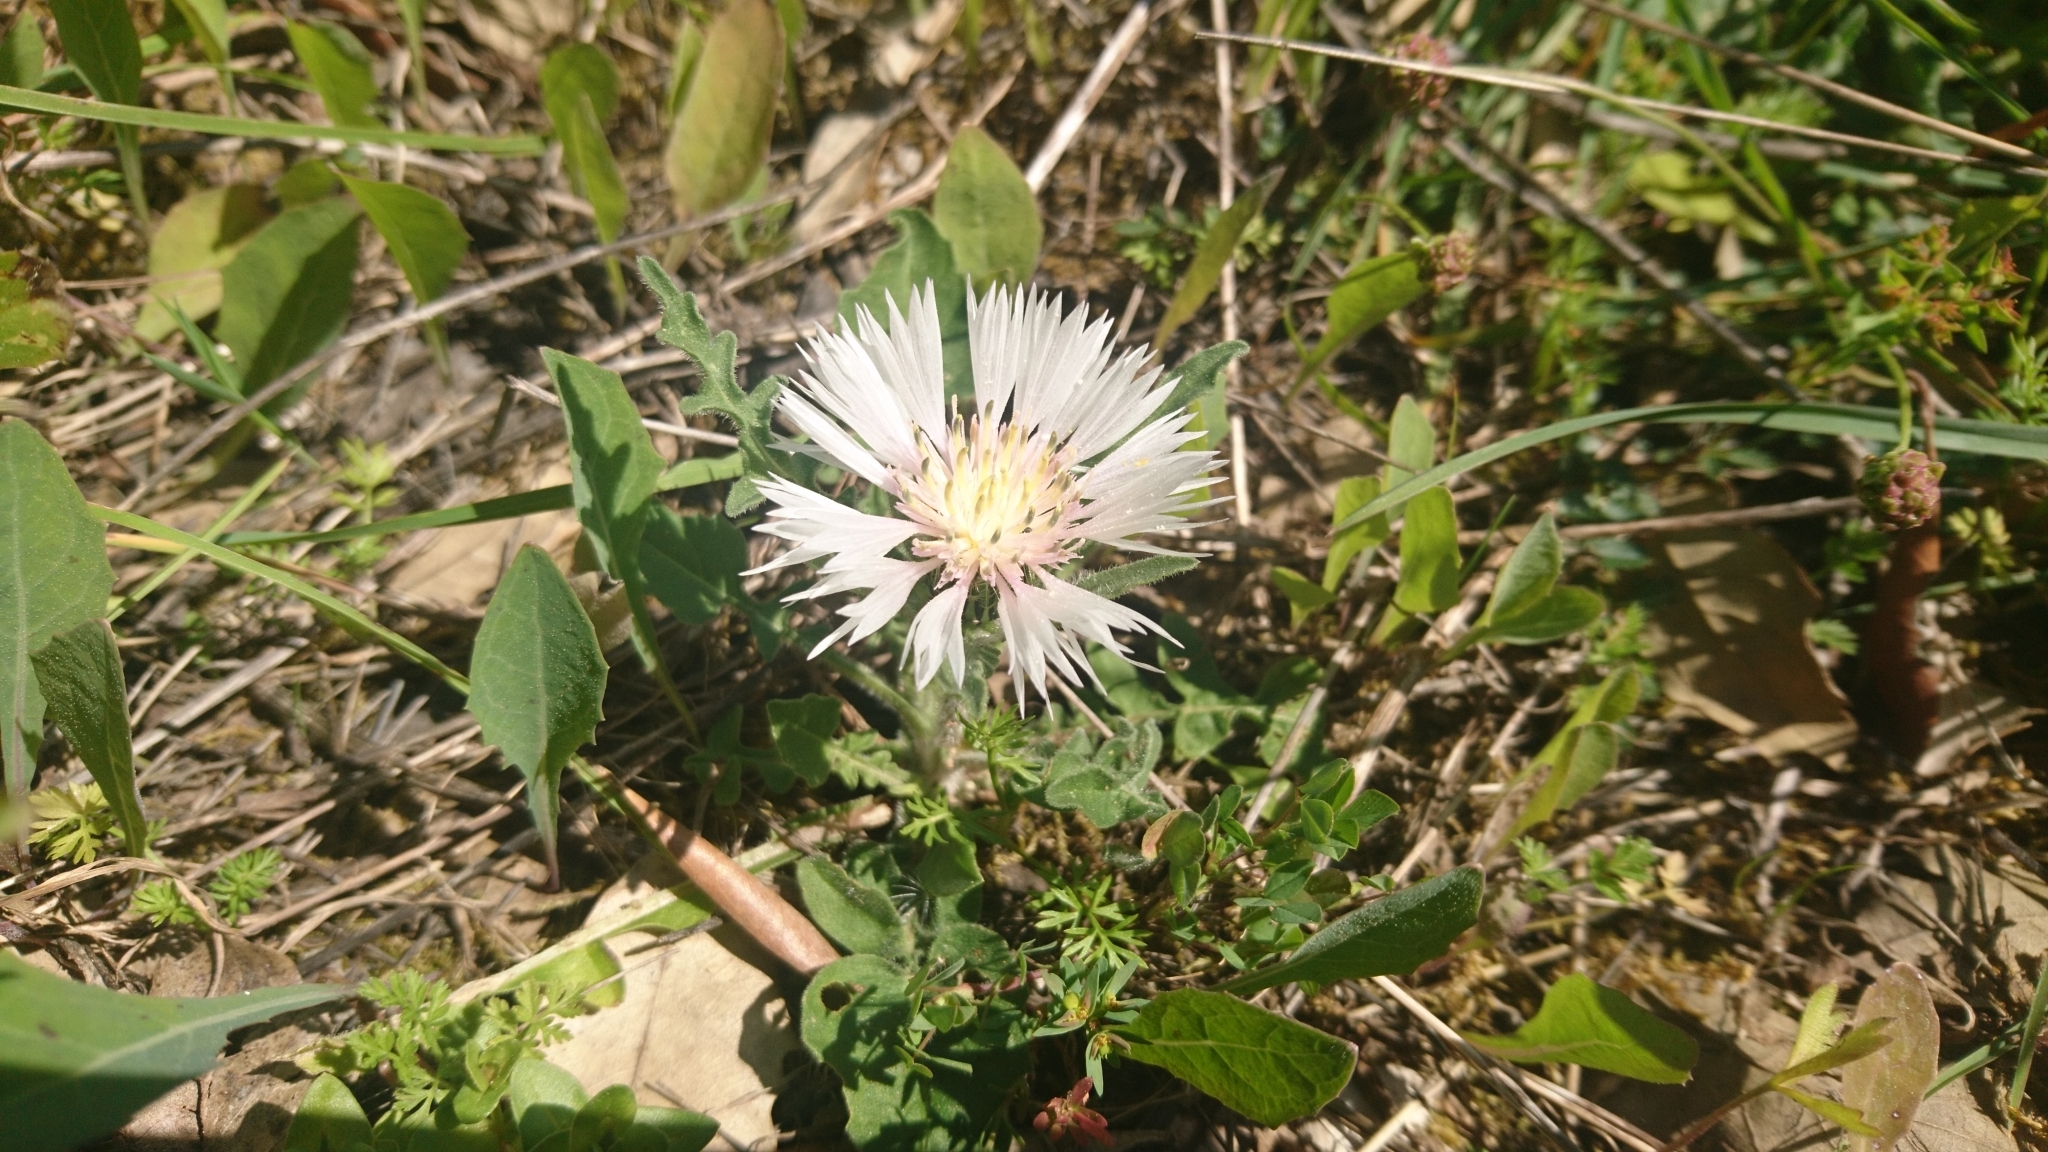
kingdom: Plantae
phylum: Tracheophyta
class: Magnoliopsida
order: Asterales
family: Asteraceae
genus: Centaurea
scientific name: Centaurea pullata
